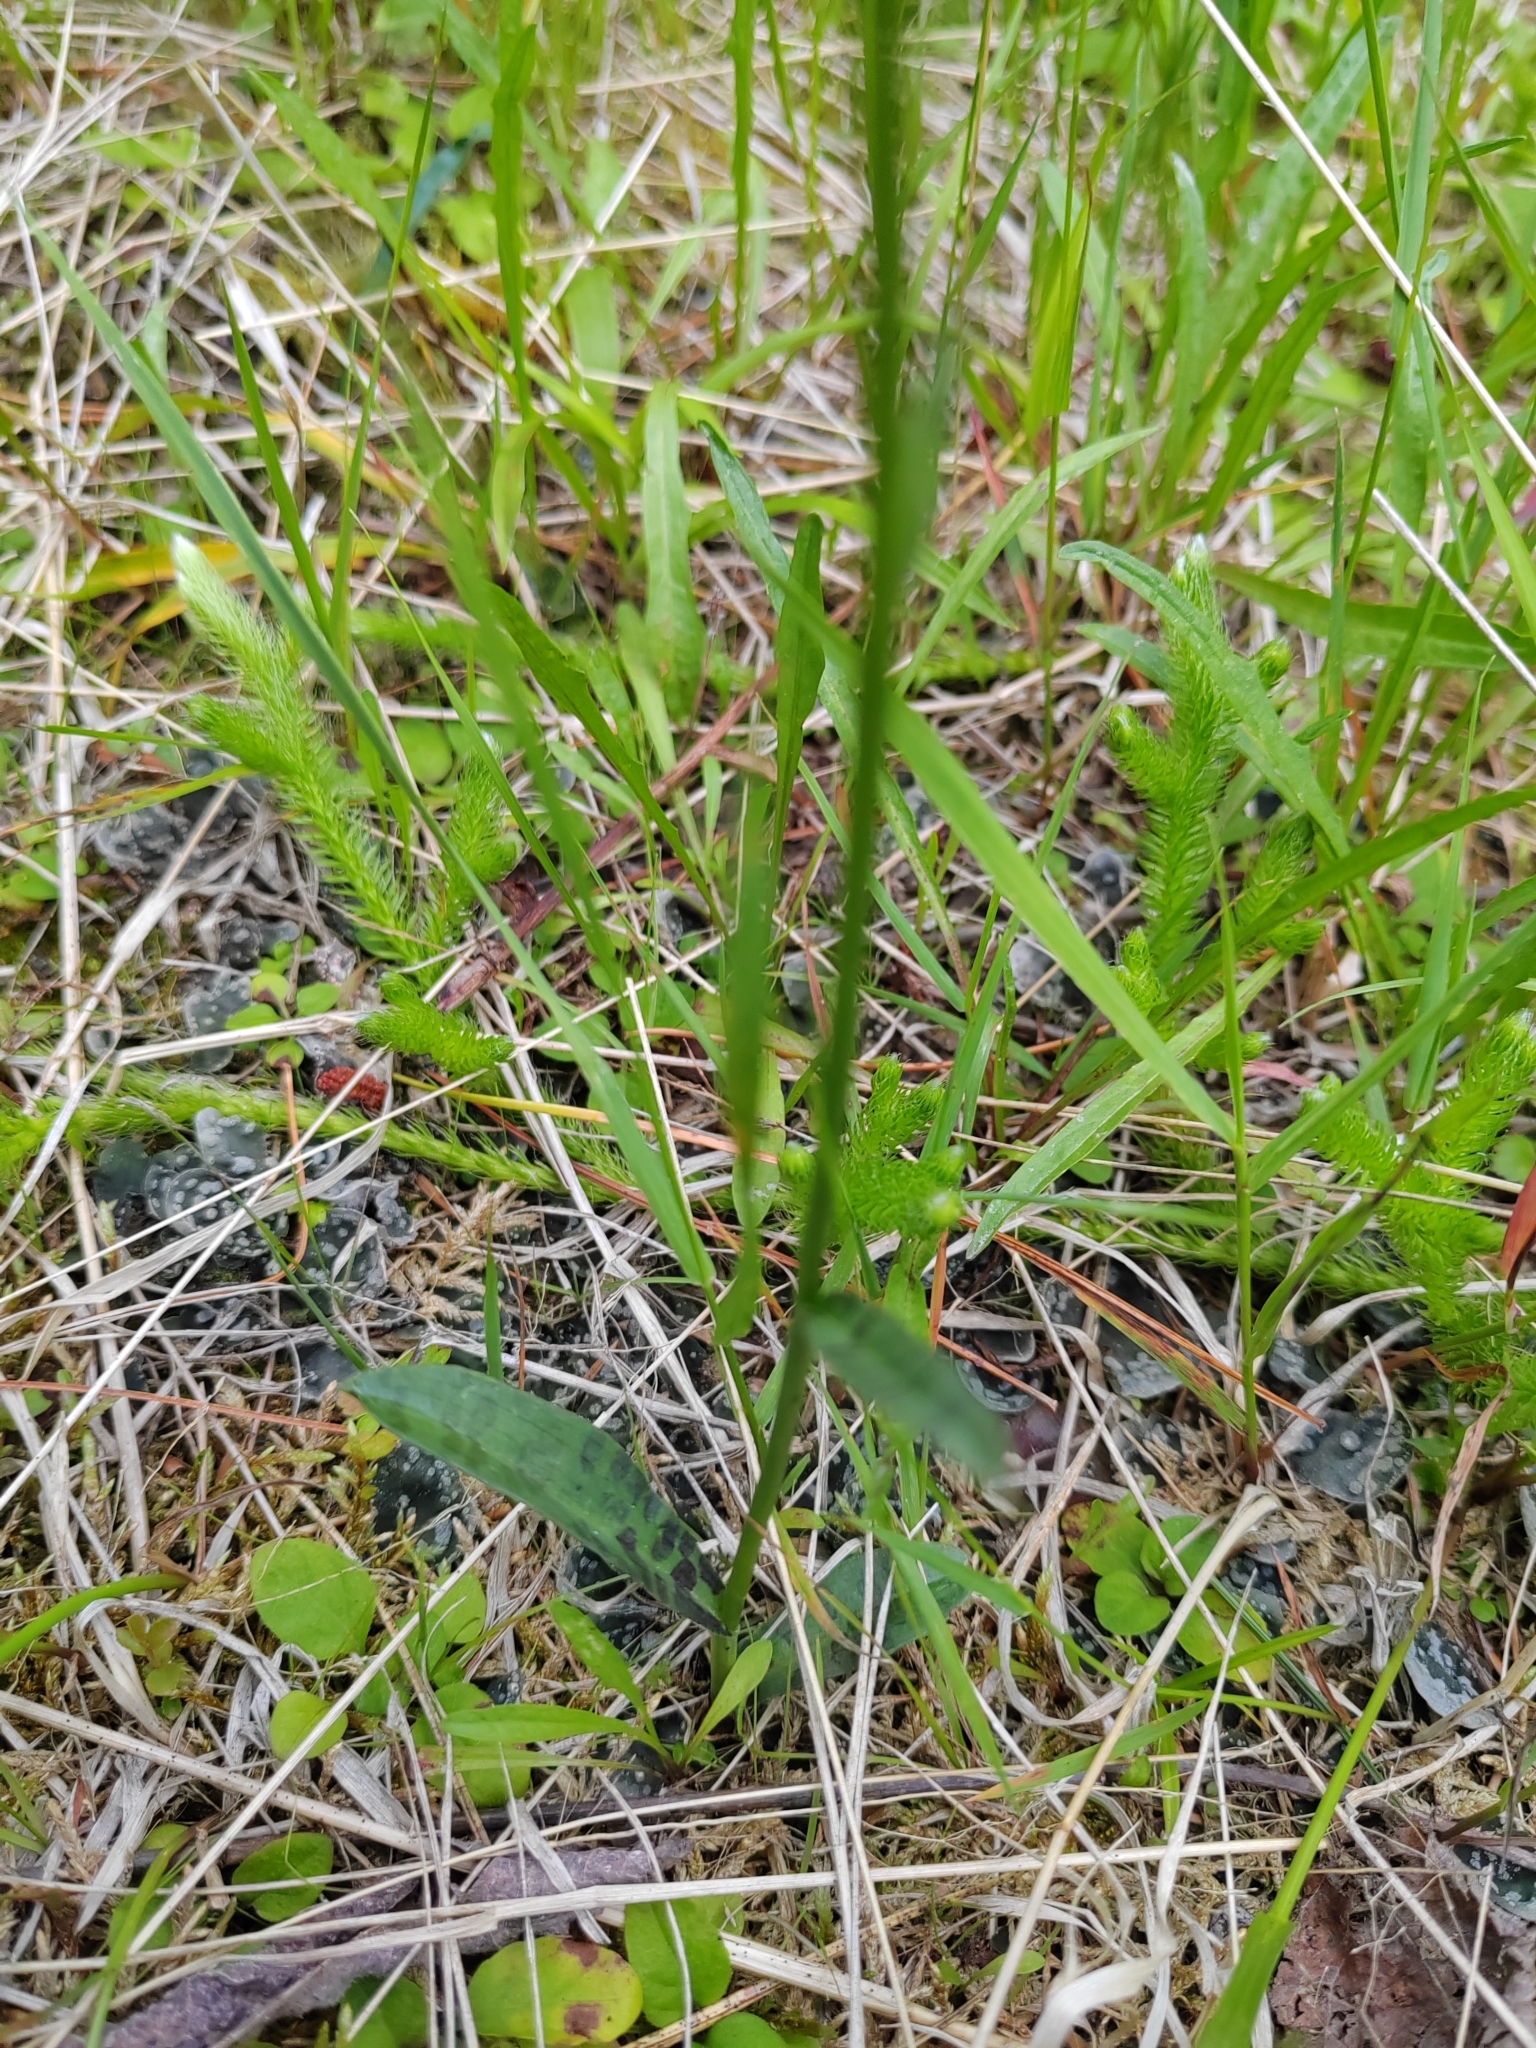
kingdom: Plantae
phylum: Tracheophyta
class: Liliopsida
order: Asparagales
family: Orchidaceae
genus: Dactylorhiza
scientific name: Dactylorhiza maculata
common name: Heath spotted-orchid
